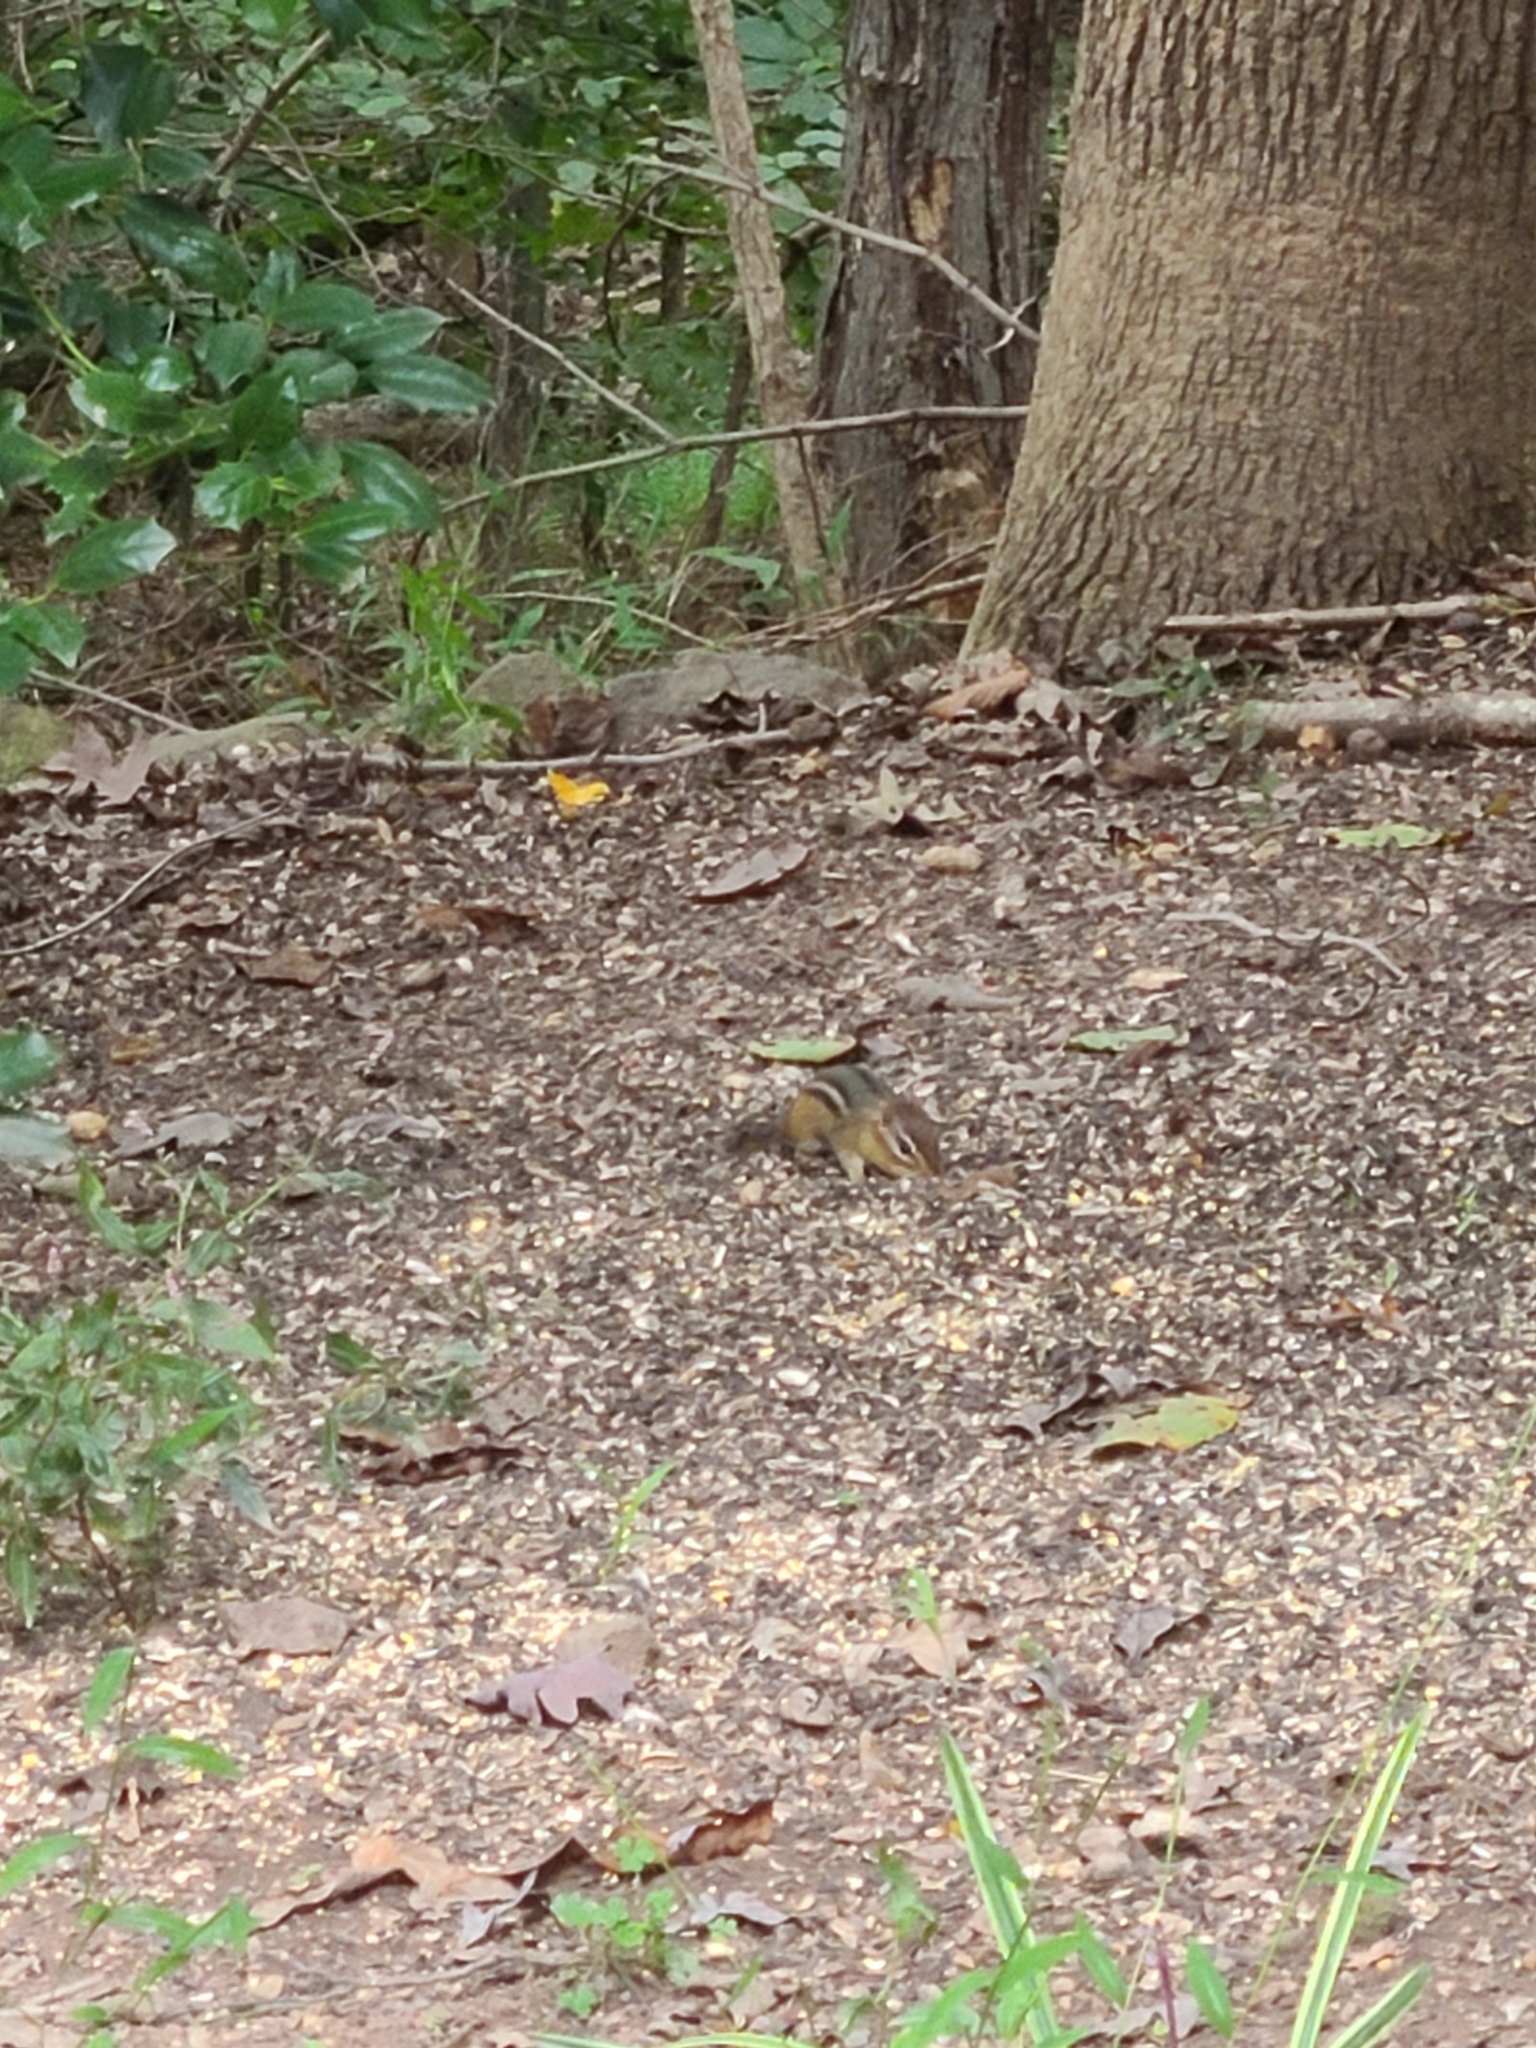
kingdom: Animalia
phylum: Chordata
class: Mammalia
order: Rodentia
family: Sciuridae
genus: Tamias
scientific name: Tamias striatus
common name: Eastern chipmunk
